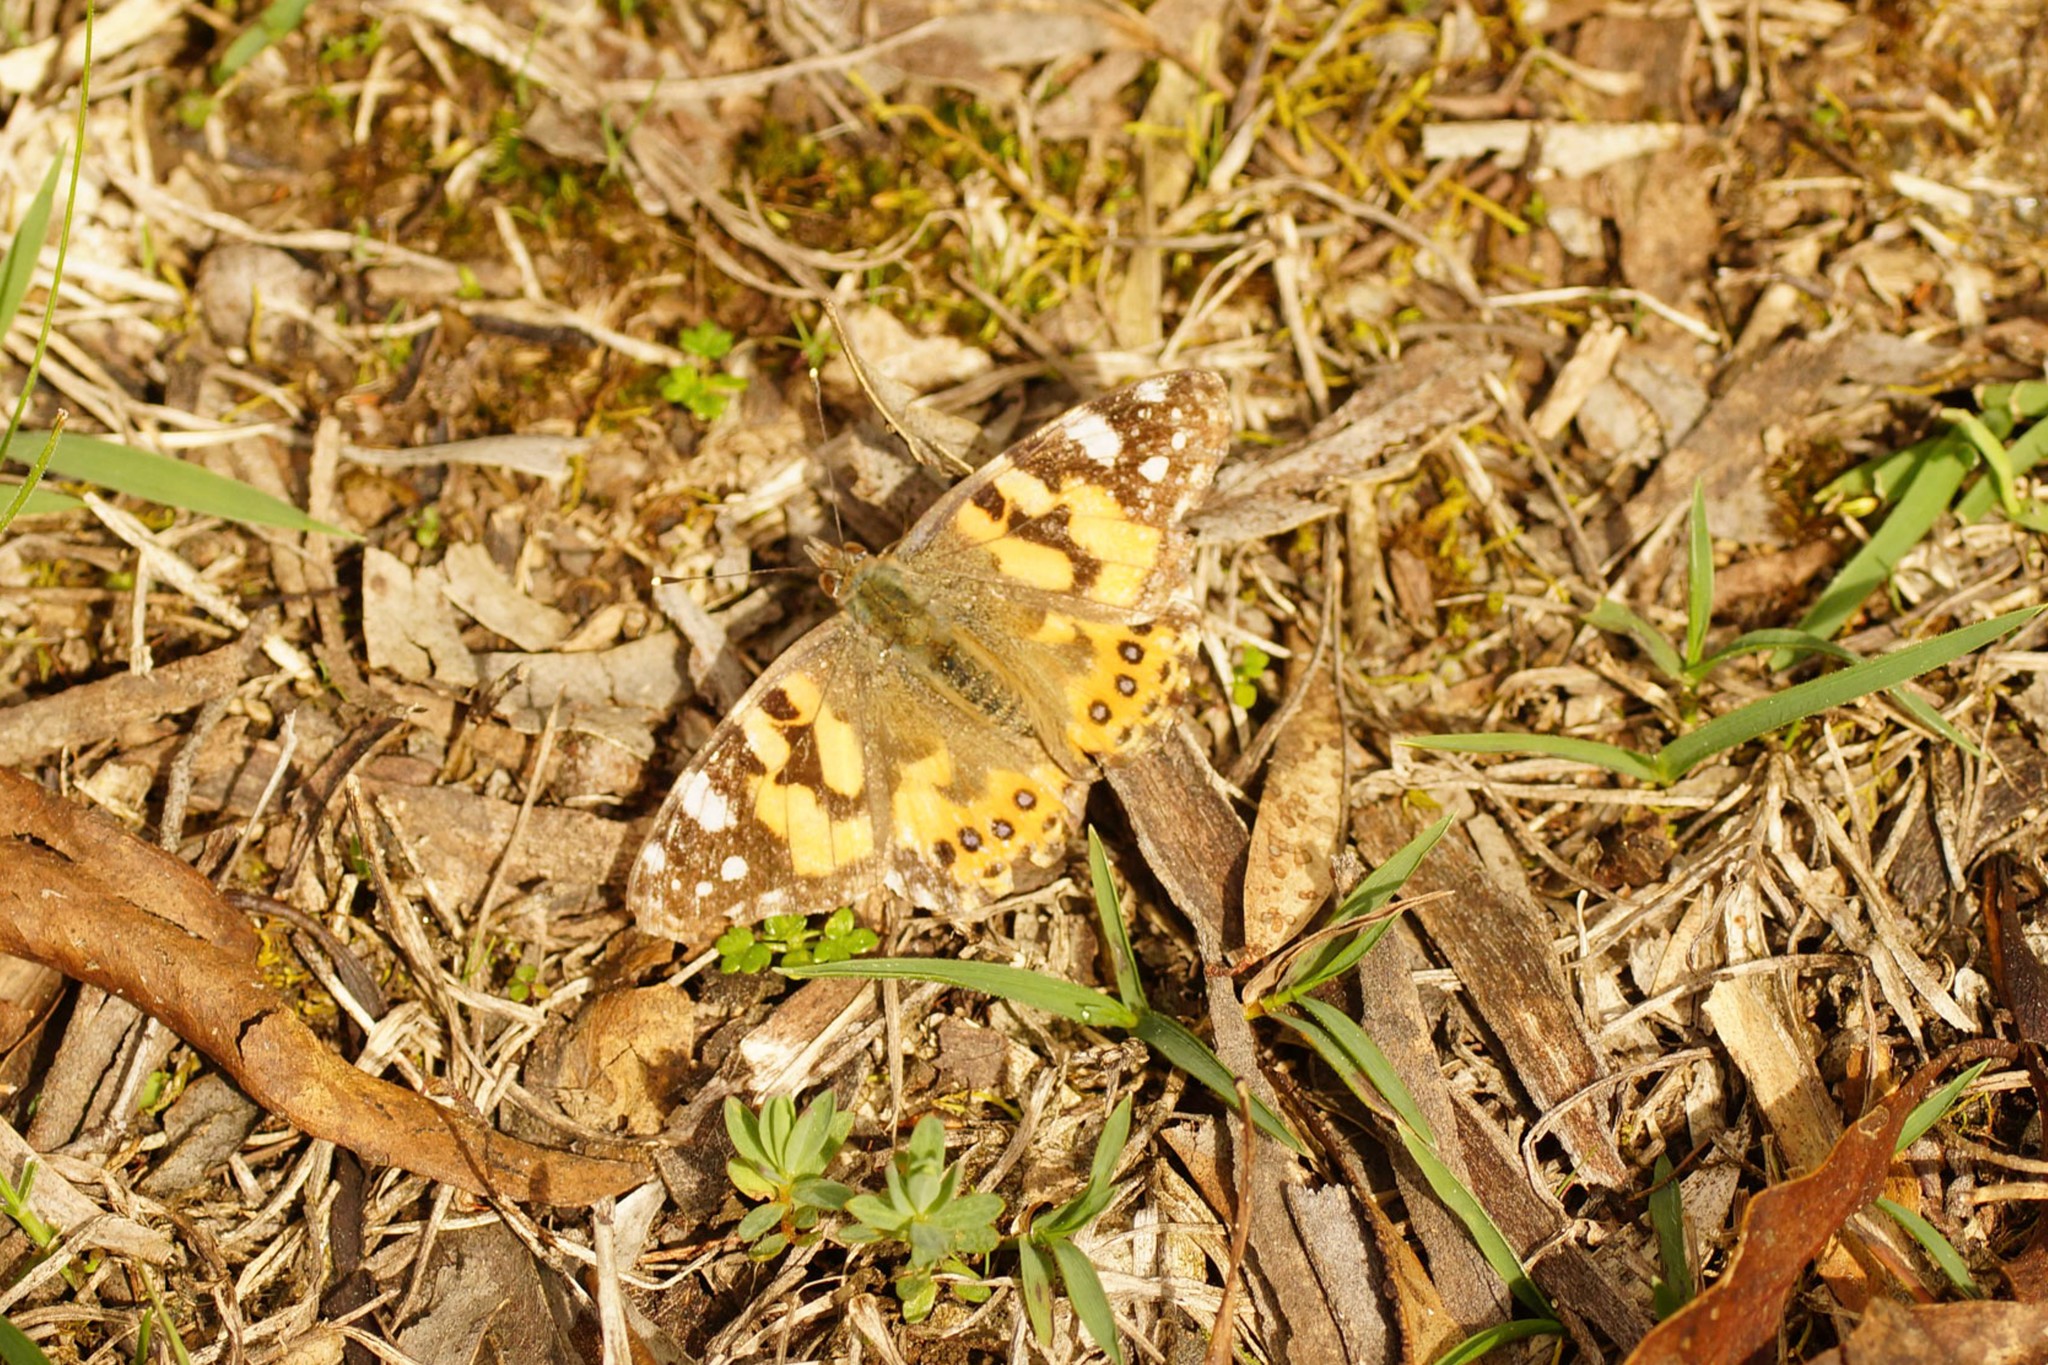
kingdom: Animalia
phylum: Arthropoda
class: Insecta
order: Lepidoptera
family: Nymphalidae
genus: Vanessa
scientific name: Vanessa kershawi
